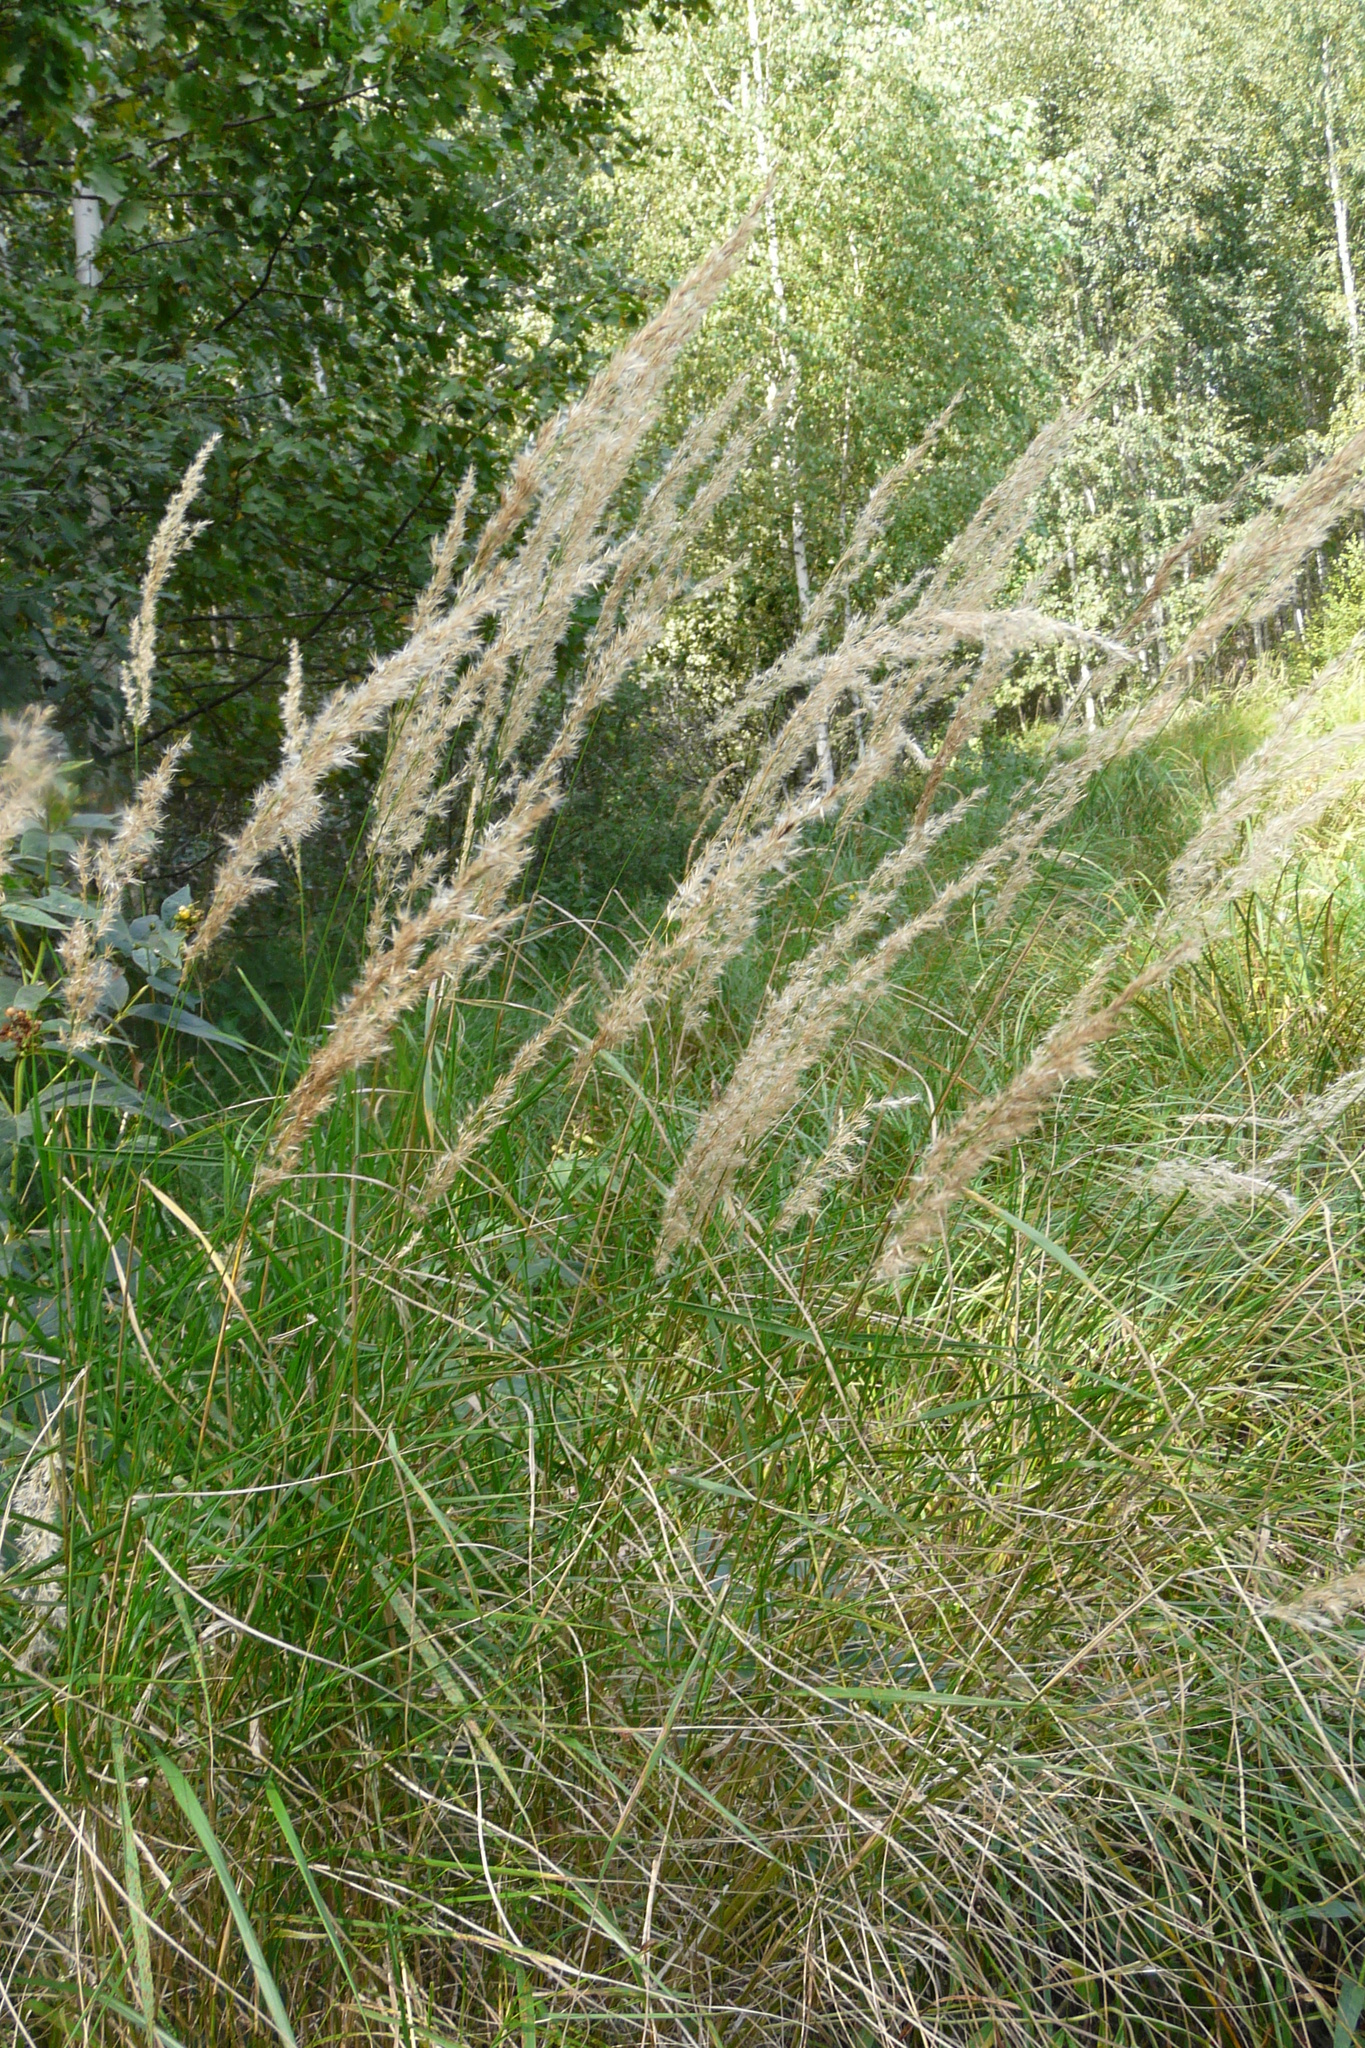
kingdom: Plantae
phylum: Tracheophyta
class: Liliopsida
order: Poales
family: Poaceae
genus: Calamagrostis
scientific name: Calamagrostis canescens
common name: Purple small-reed
